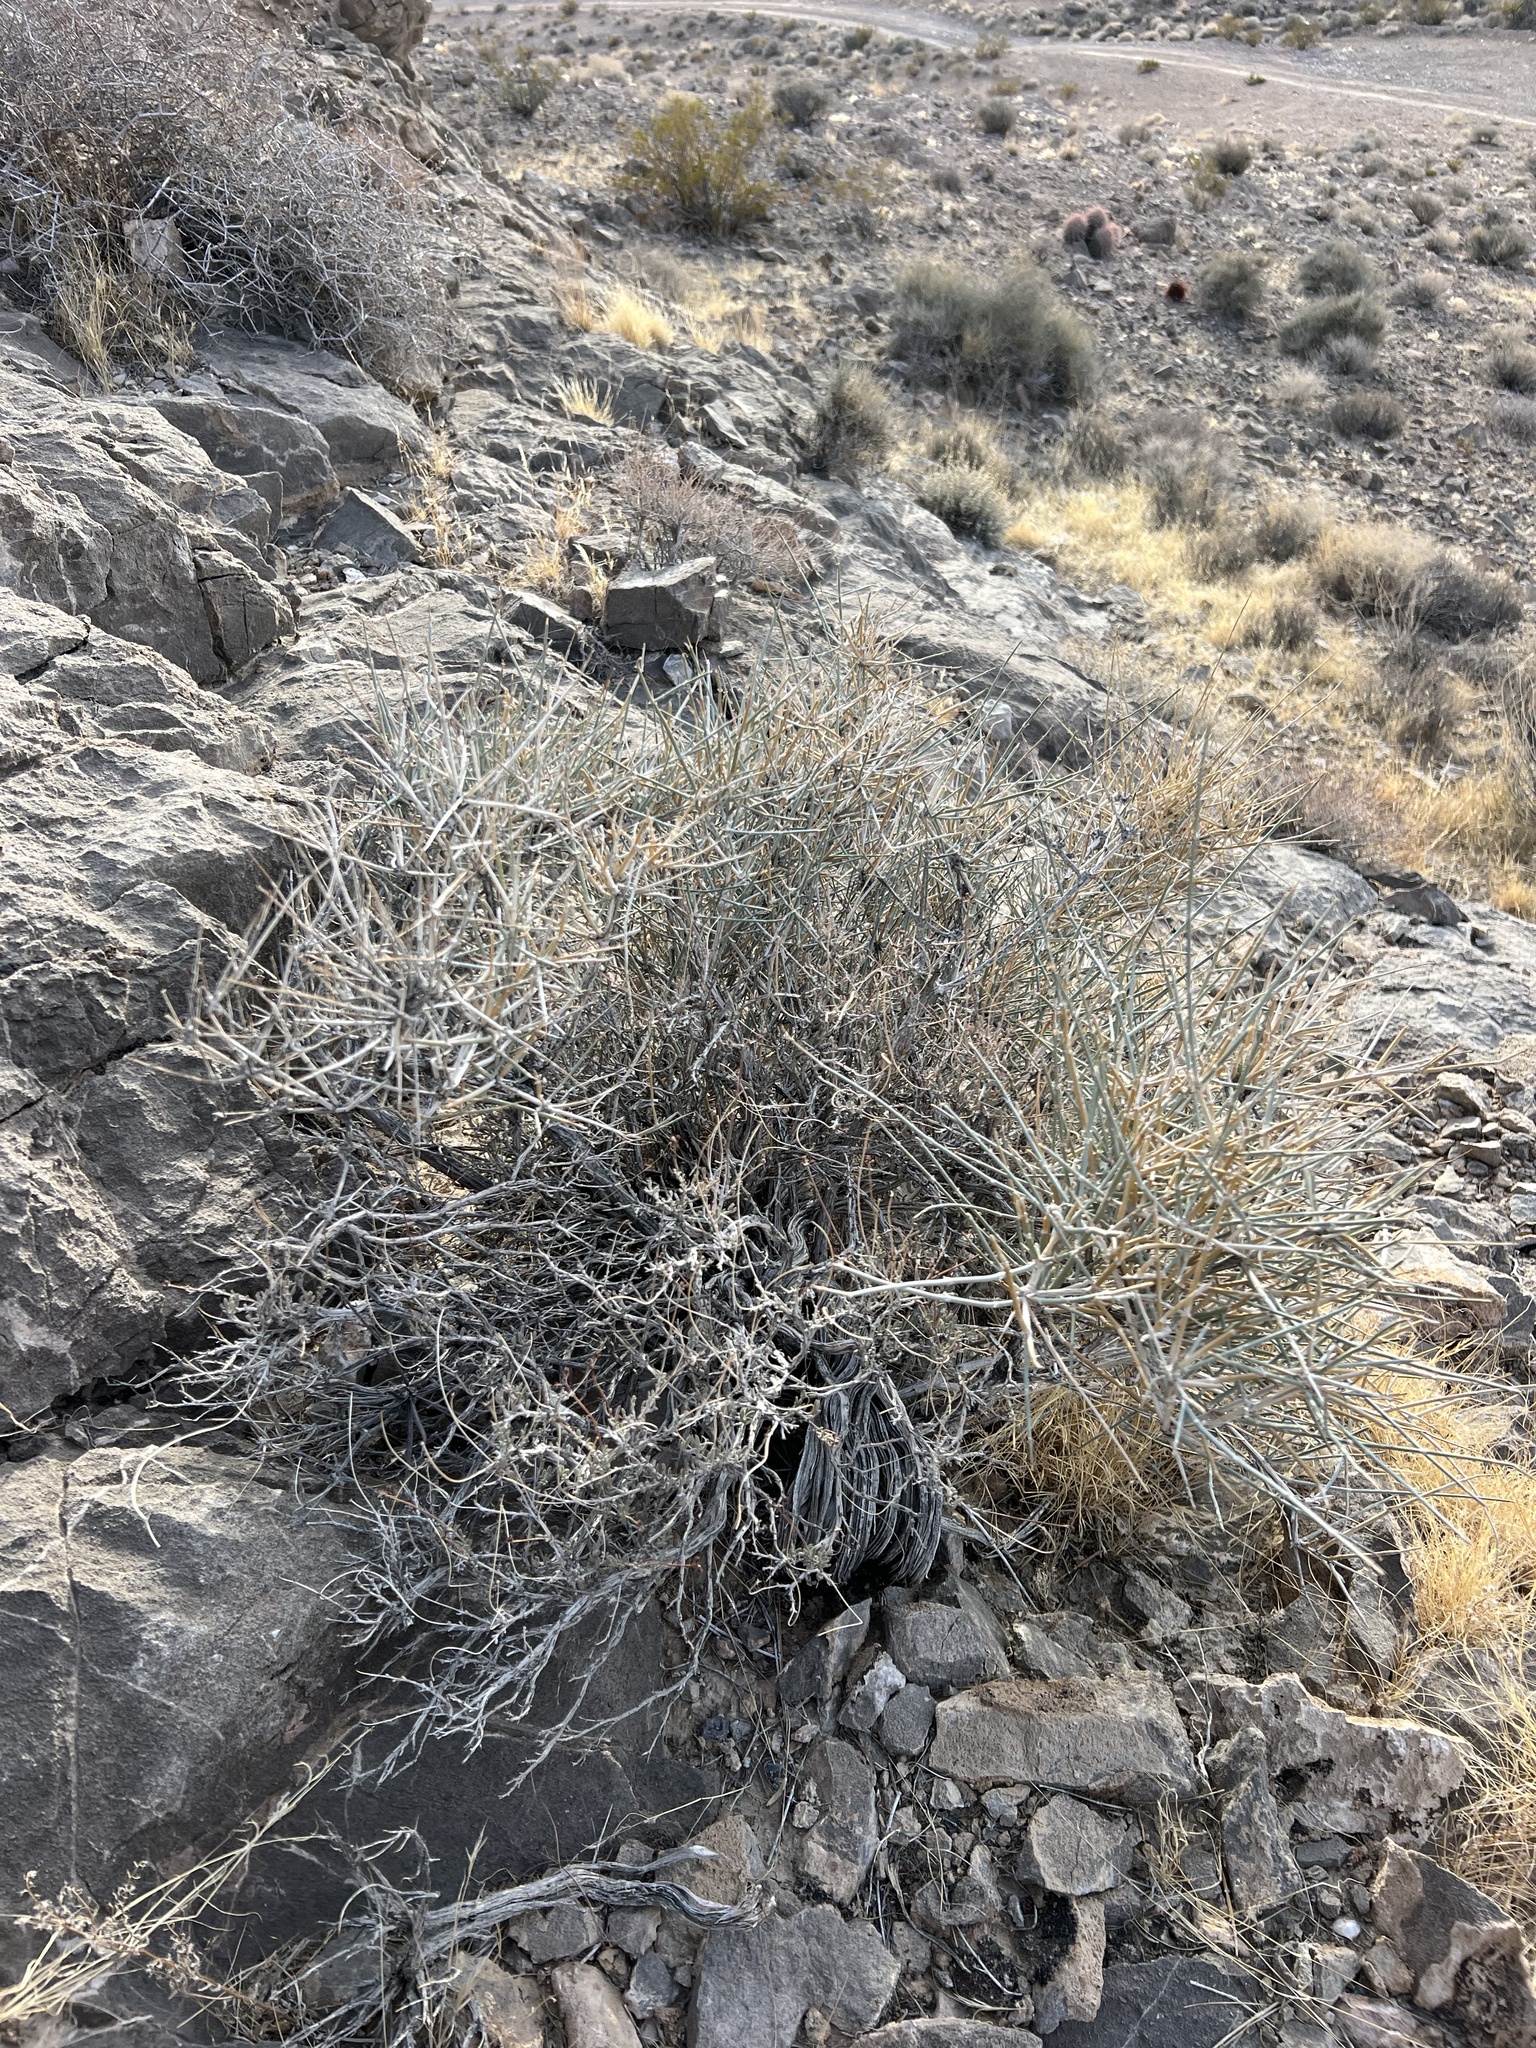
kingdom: Plantae
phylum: Tracheophyta
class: Gnetopsida
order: Ephedrales
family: Ephedraceae
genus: Ephedra
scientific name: Ephedra nevadensis
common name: Gray ephedra
